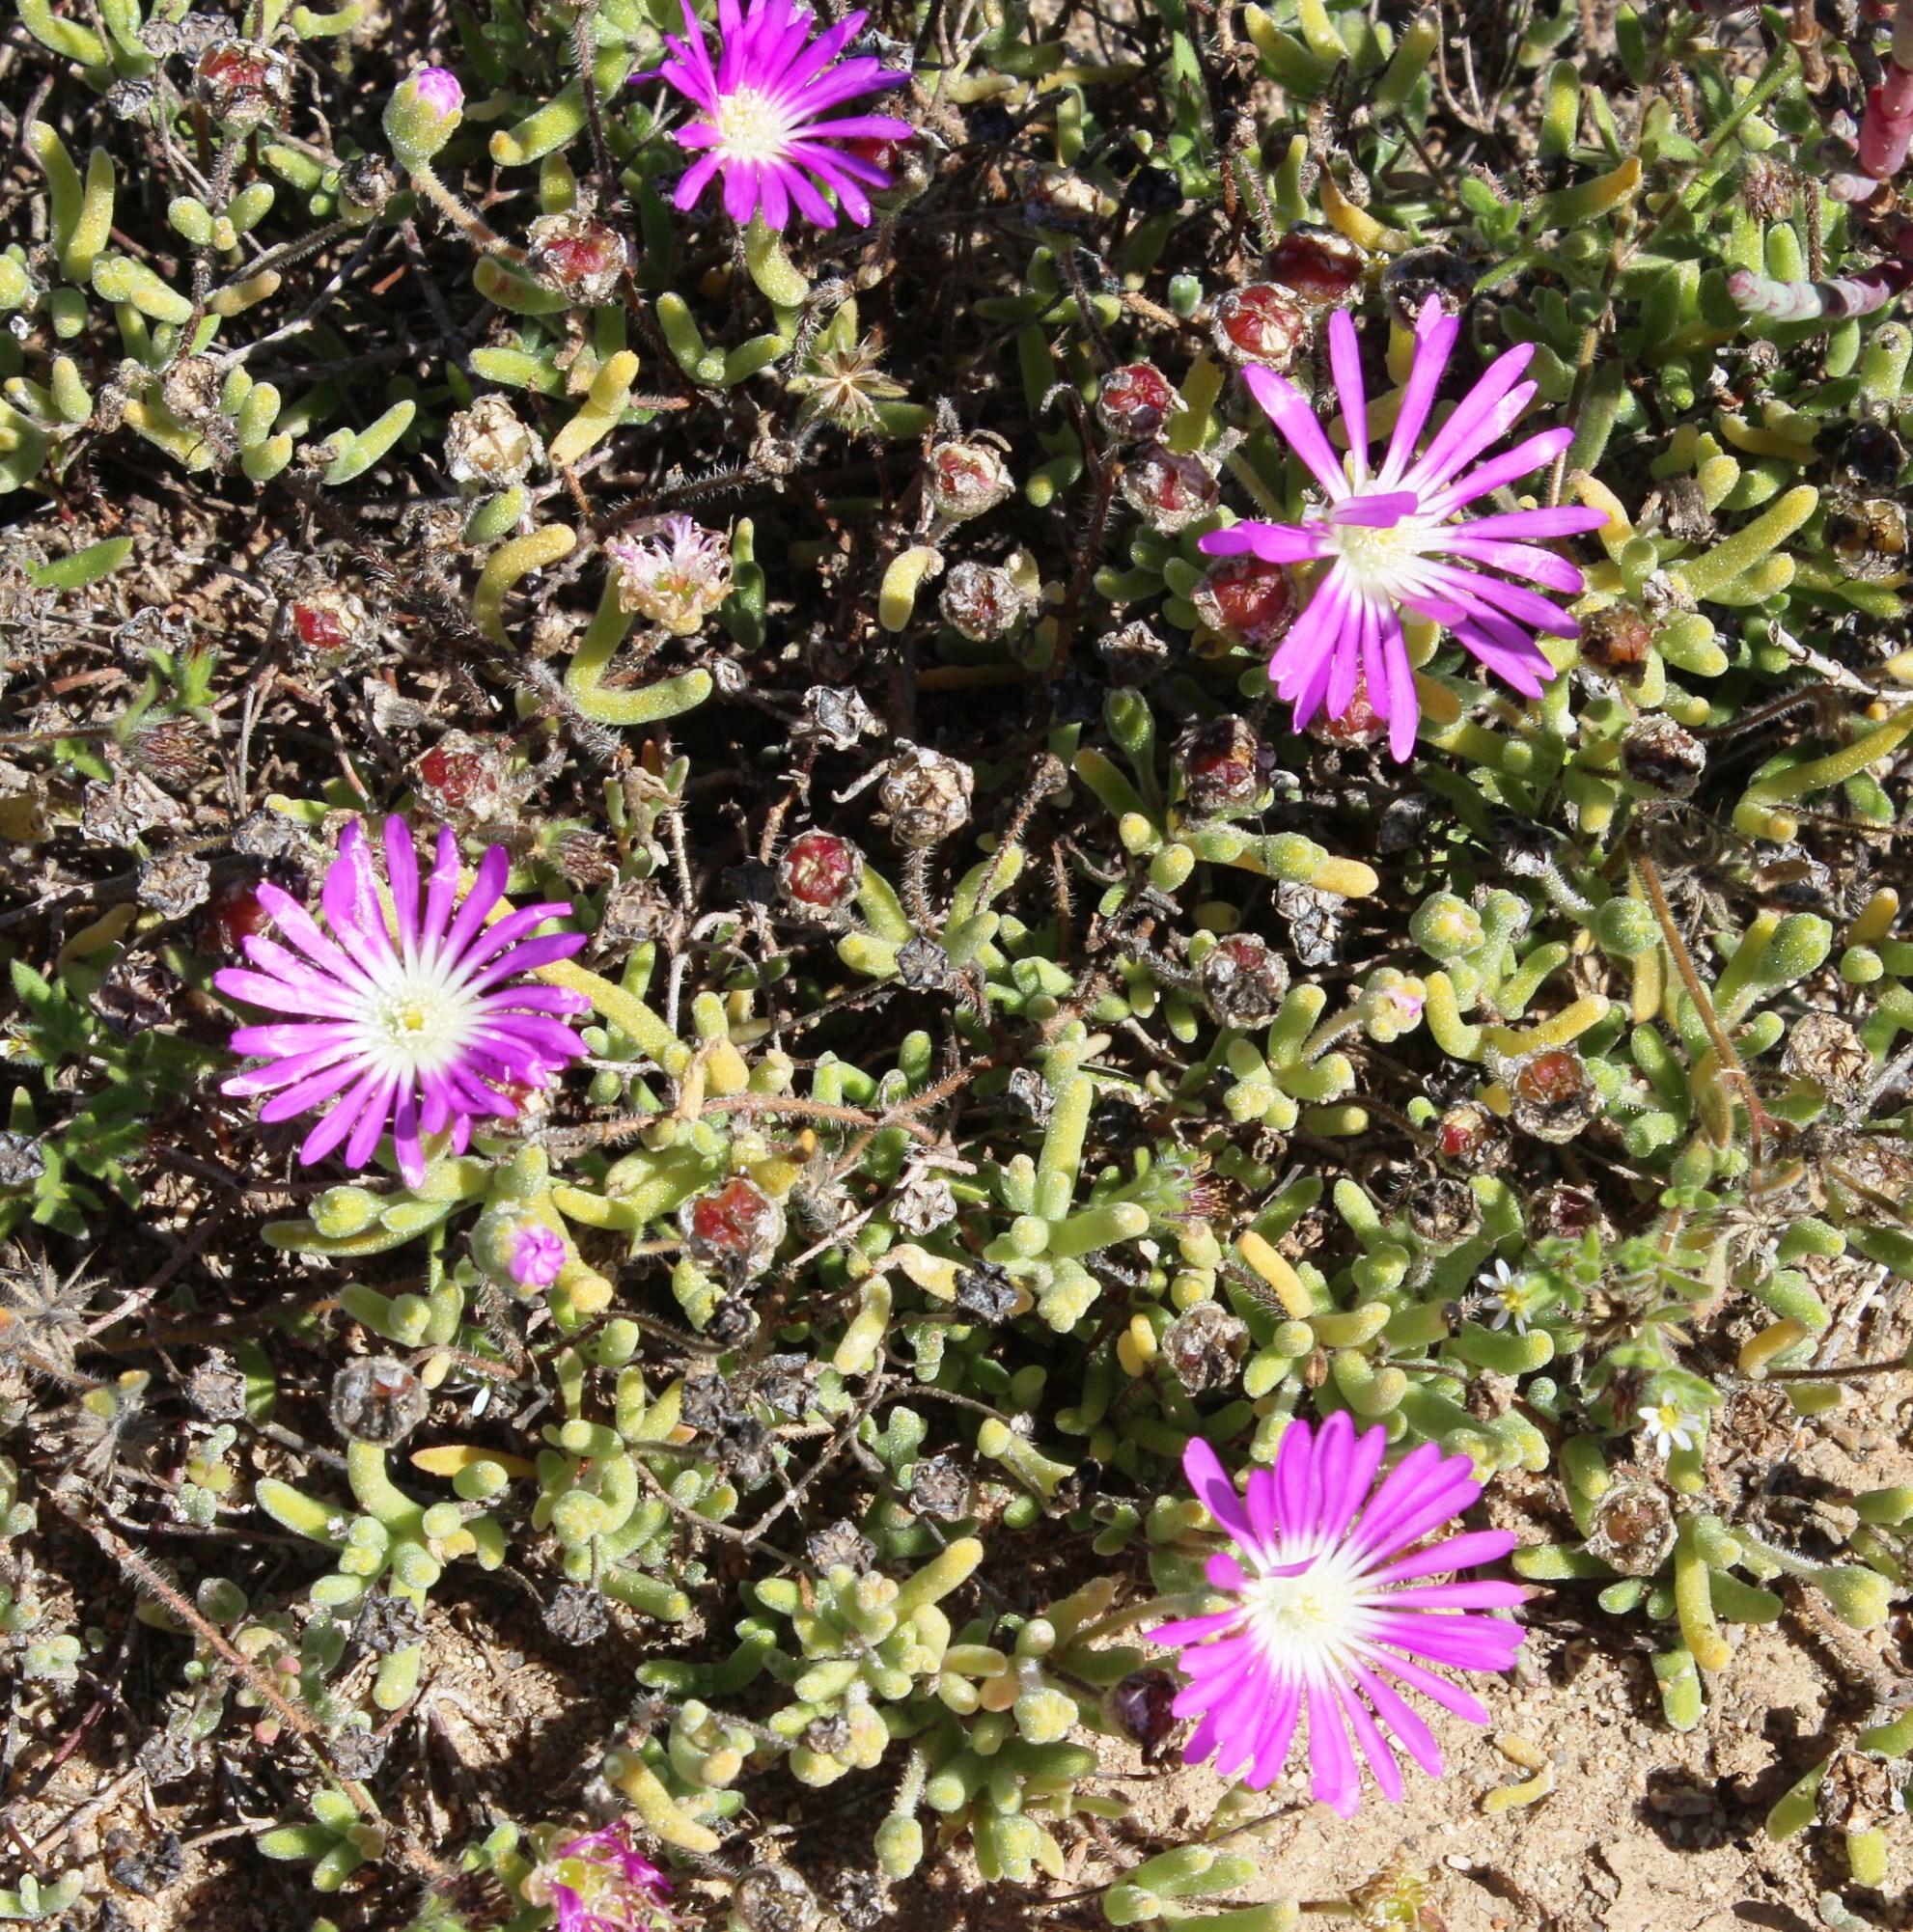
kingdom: Plantae
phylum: Tracheophyta
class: Magnoliopsida
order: Caryophyllales
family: Aizoaceae
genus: Drosanthemum
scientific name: Drosanthemum oculatum
